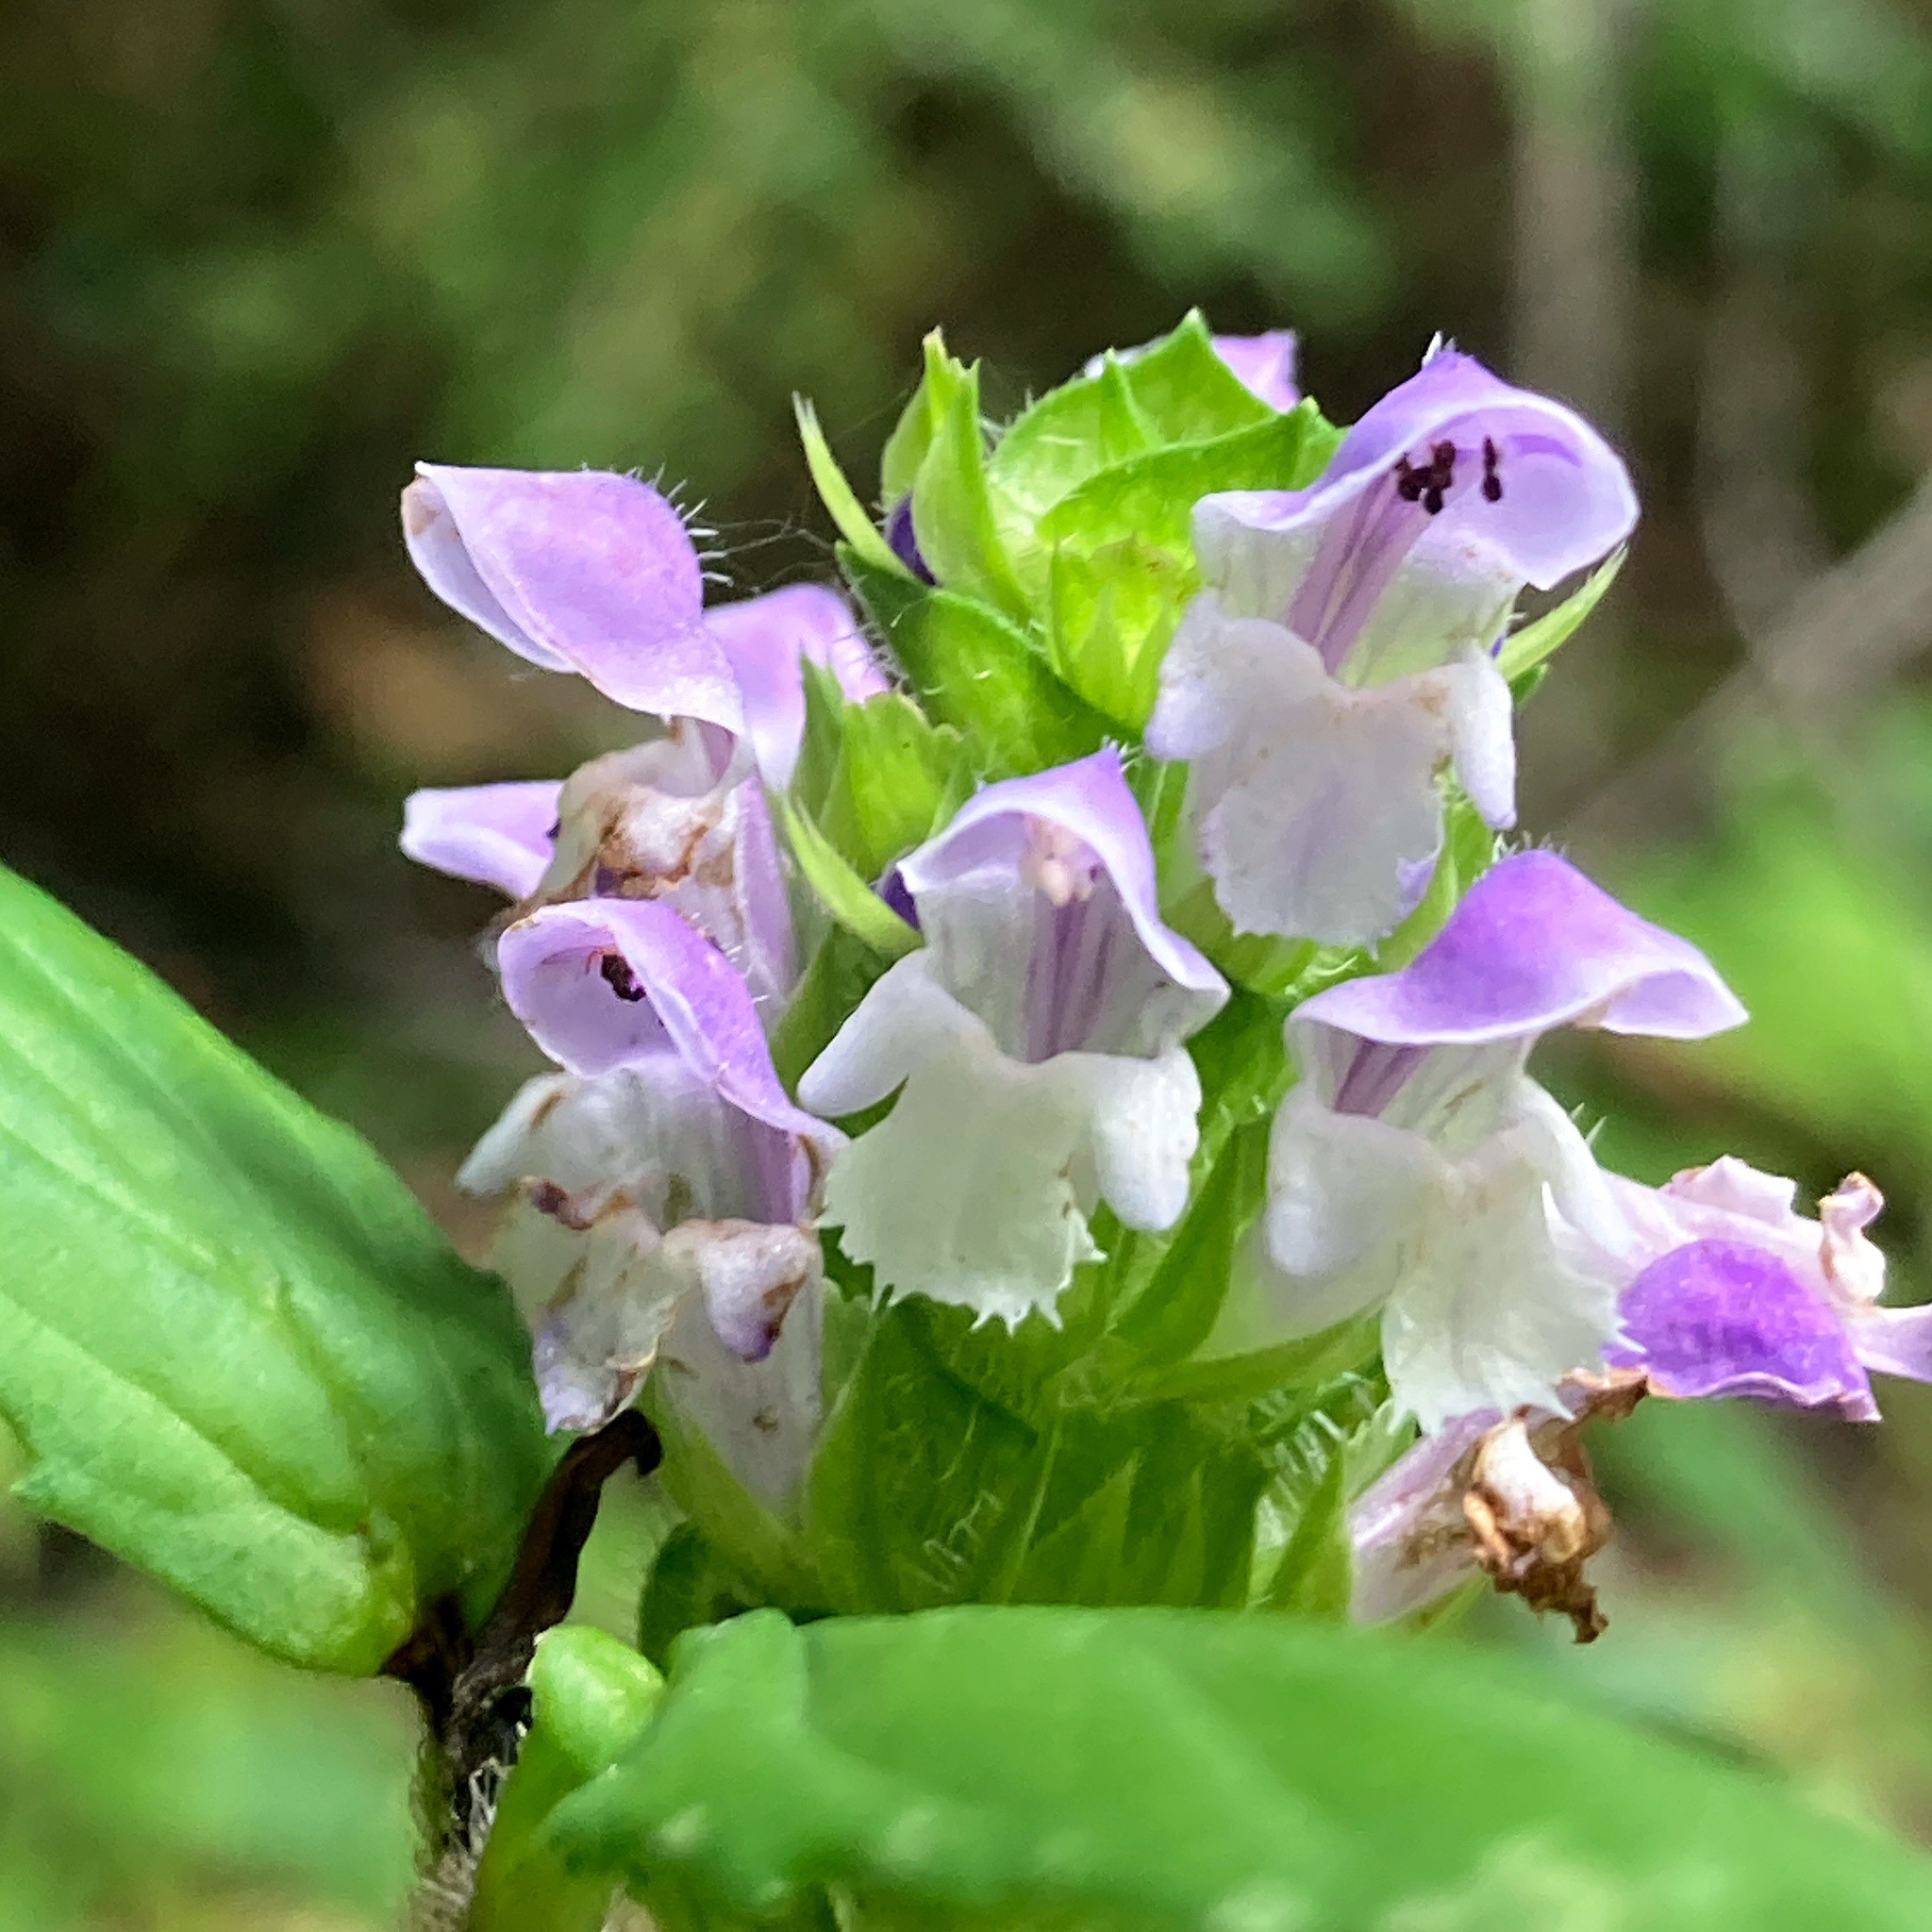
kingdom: Plantae
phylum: Tracheophyta
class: Magnoliopsida
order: Lamiales
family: Lamiaceae
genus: Prunella
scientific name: Prunella vulgaris
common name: Heal-all
